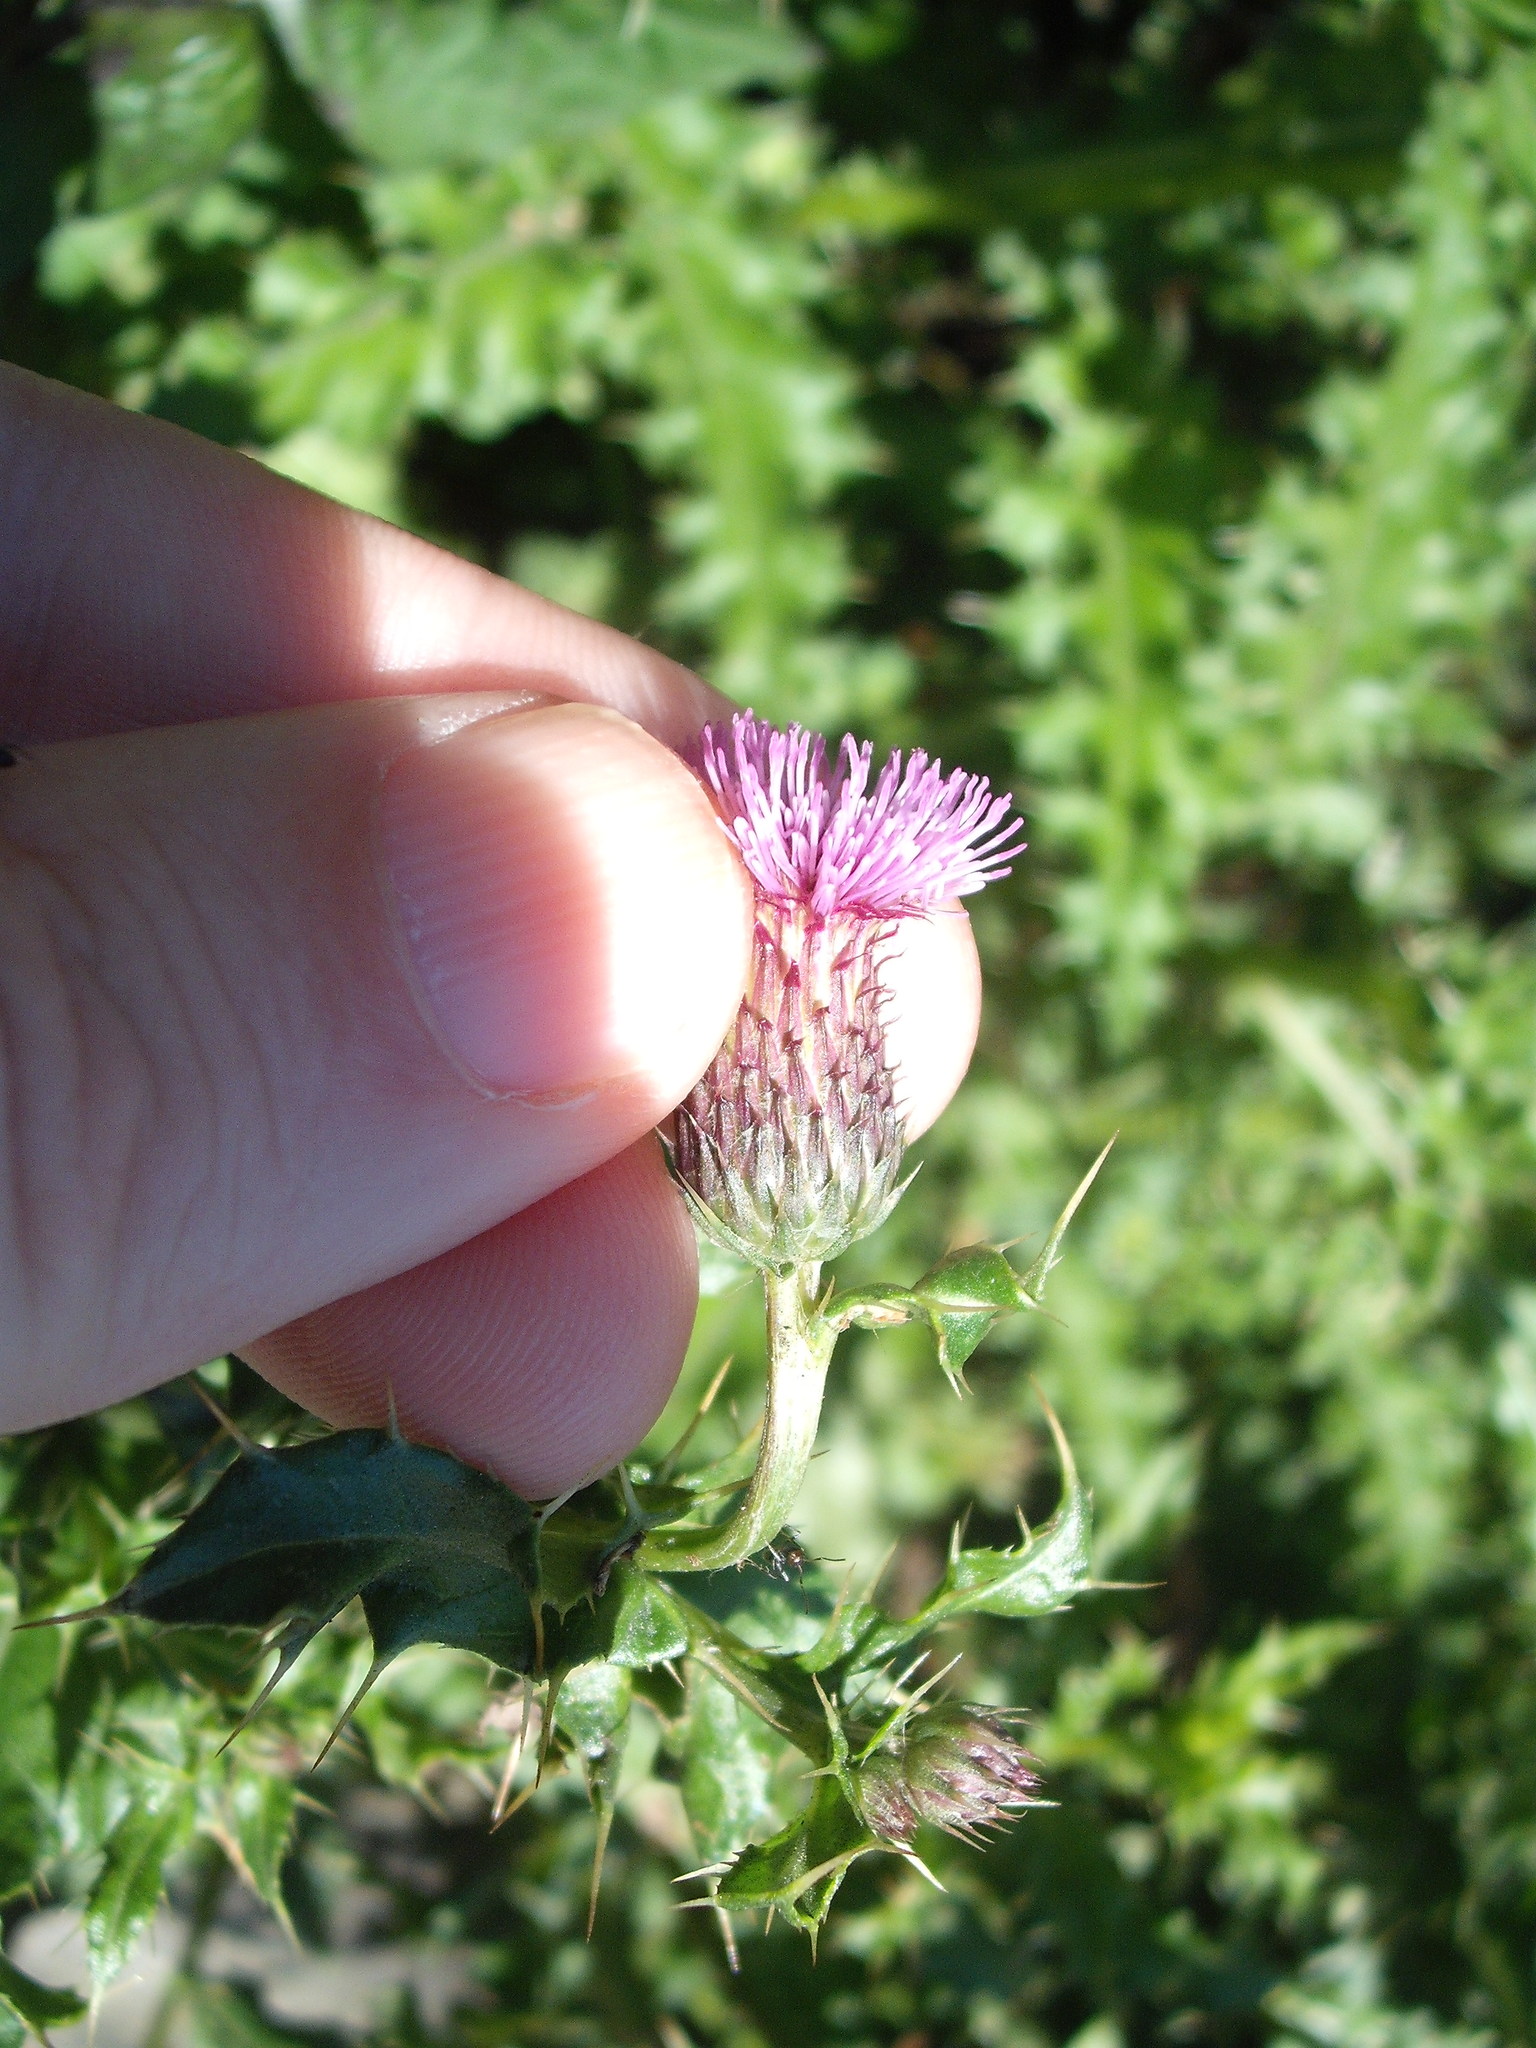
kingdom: Plantae
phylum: Tracheophyta
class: Magnoliopsida
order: Asterales
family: Asteraceae
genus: Cirsium
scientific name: Cirsium arvense
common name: Creeping thistle
